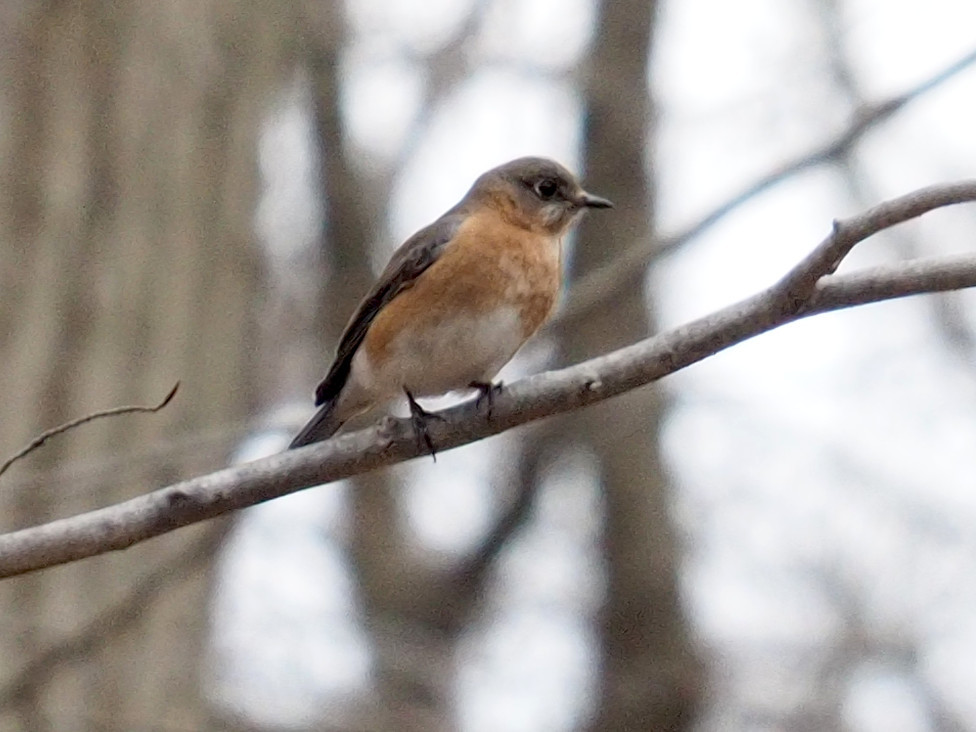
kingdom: Animalia
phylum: Chordata
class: Aves
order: Passeriformes
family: Turdidae
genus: Sialia
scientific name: Sialia sialis
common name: Eastern bluebird
